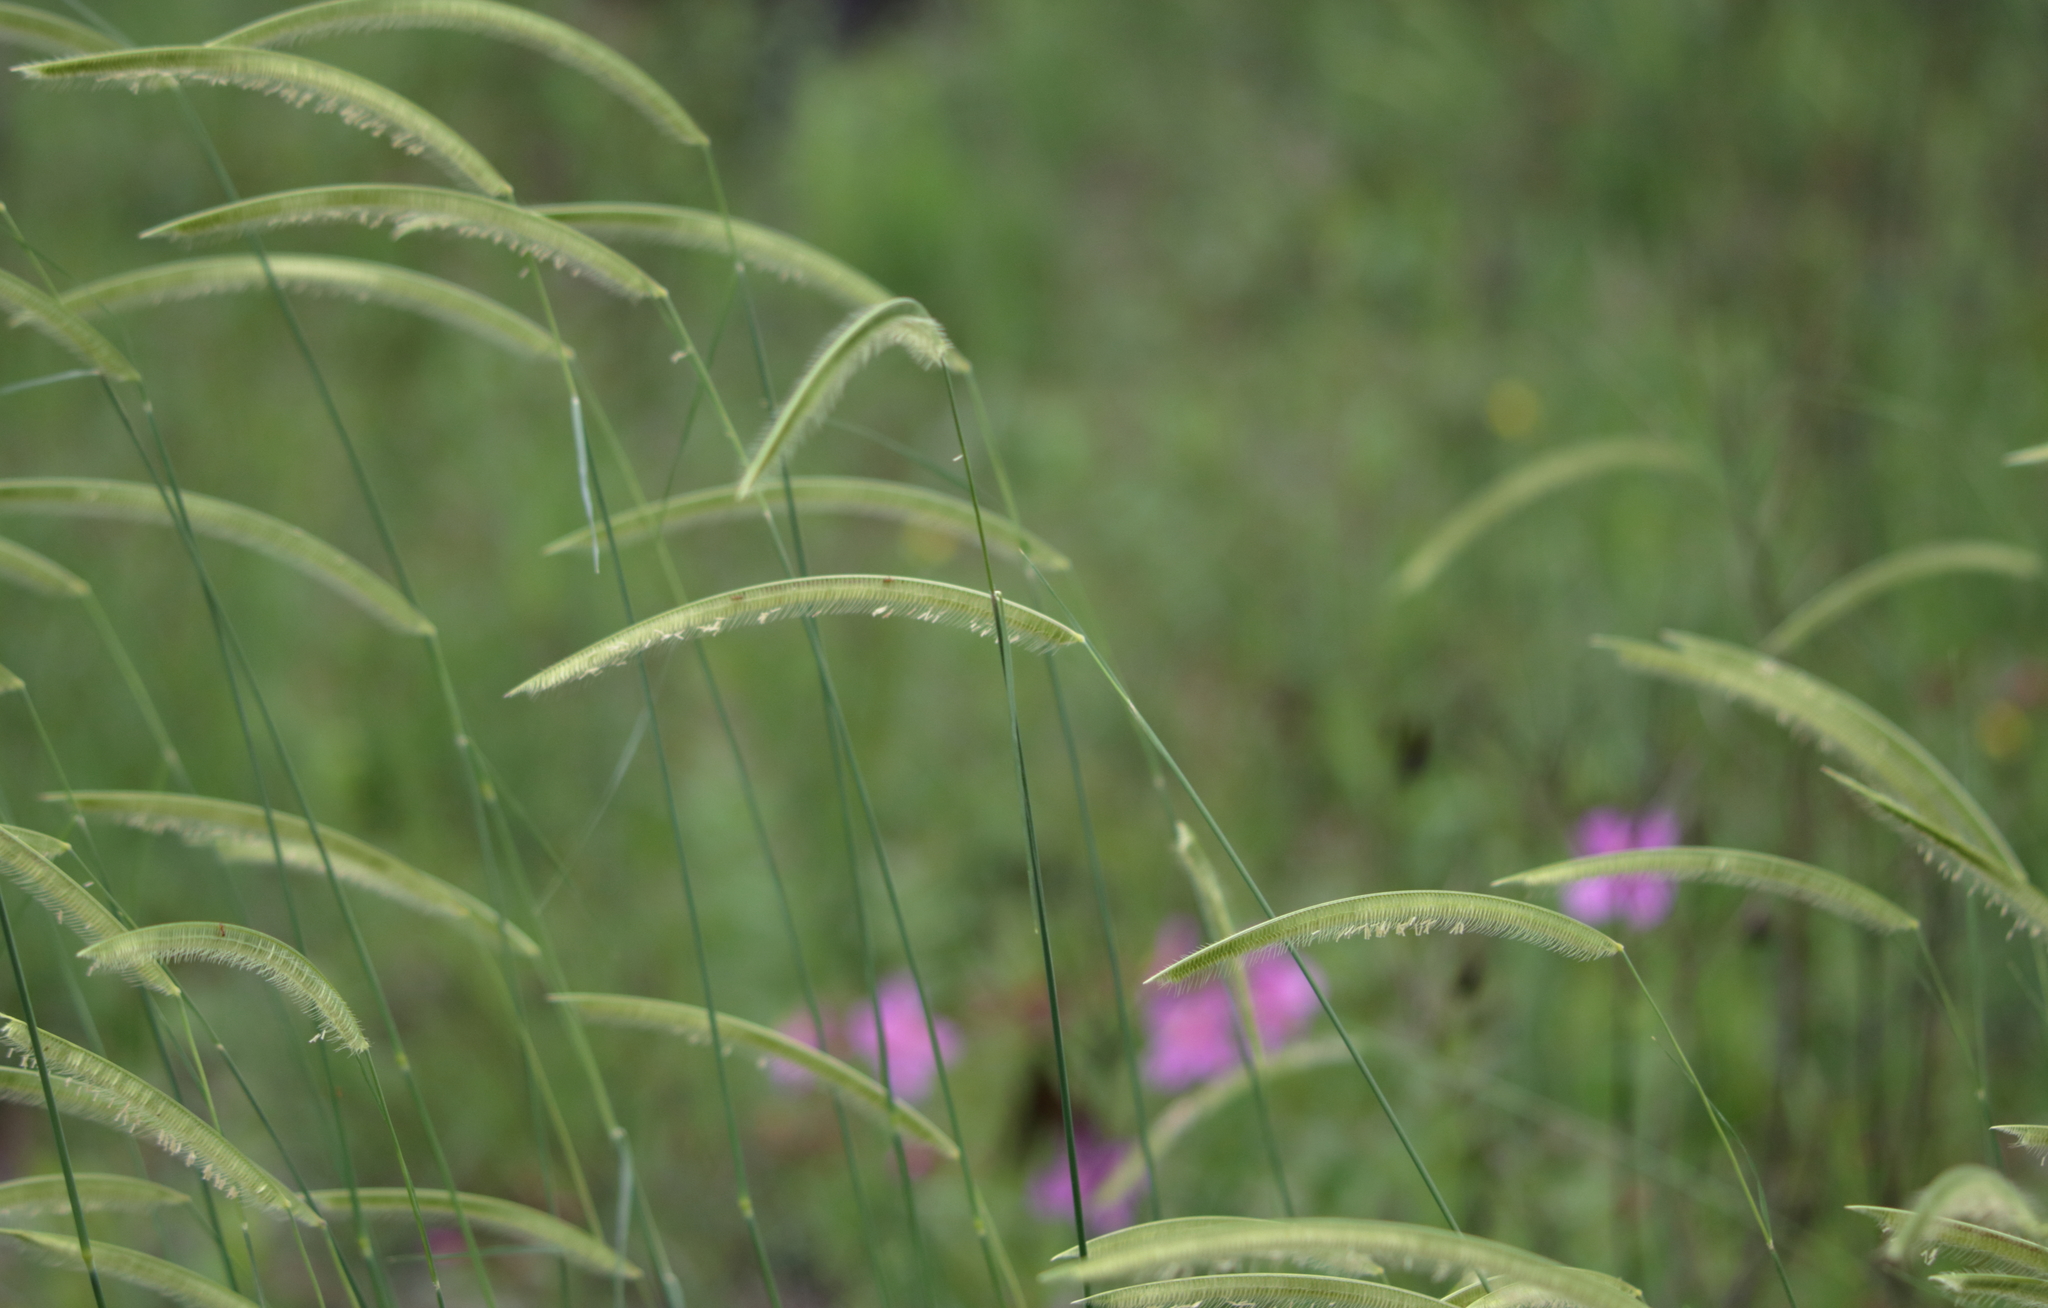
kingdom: Plantae
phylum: Tracheophyta
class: Liliopsida
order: Poales
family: Poaceae
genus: Ctenium
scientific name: Ctenium aromaticum
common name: Toothache grass
